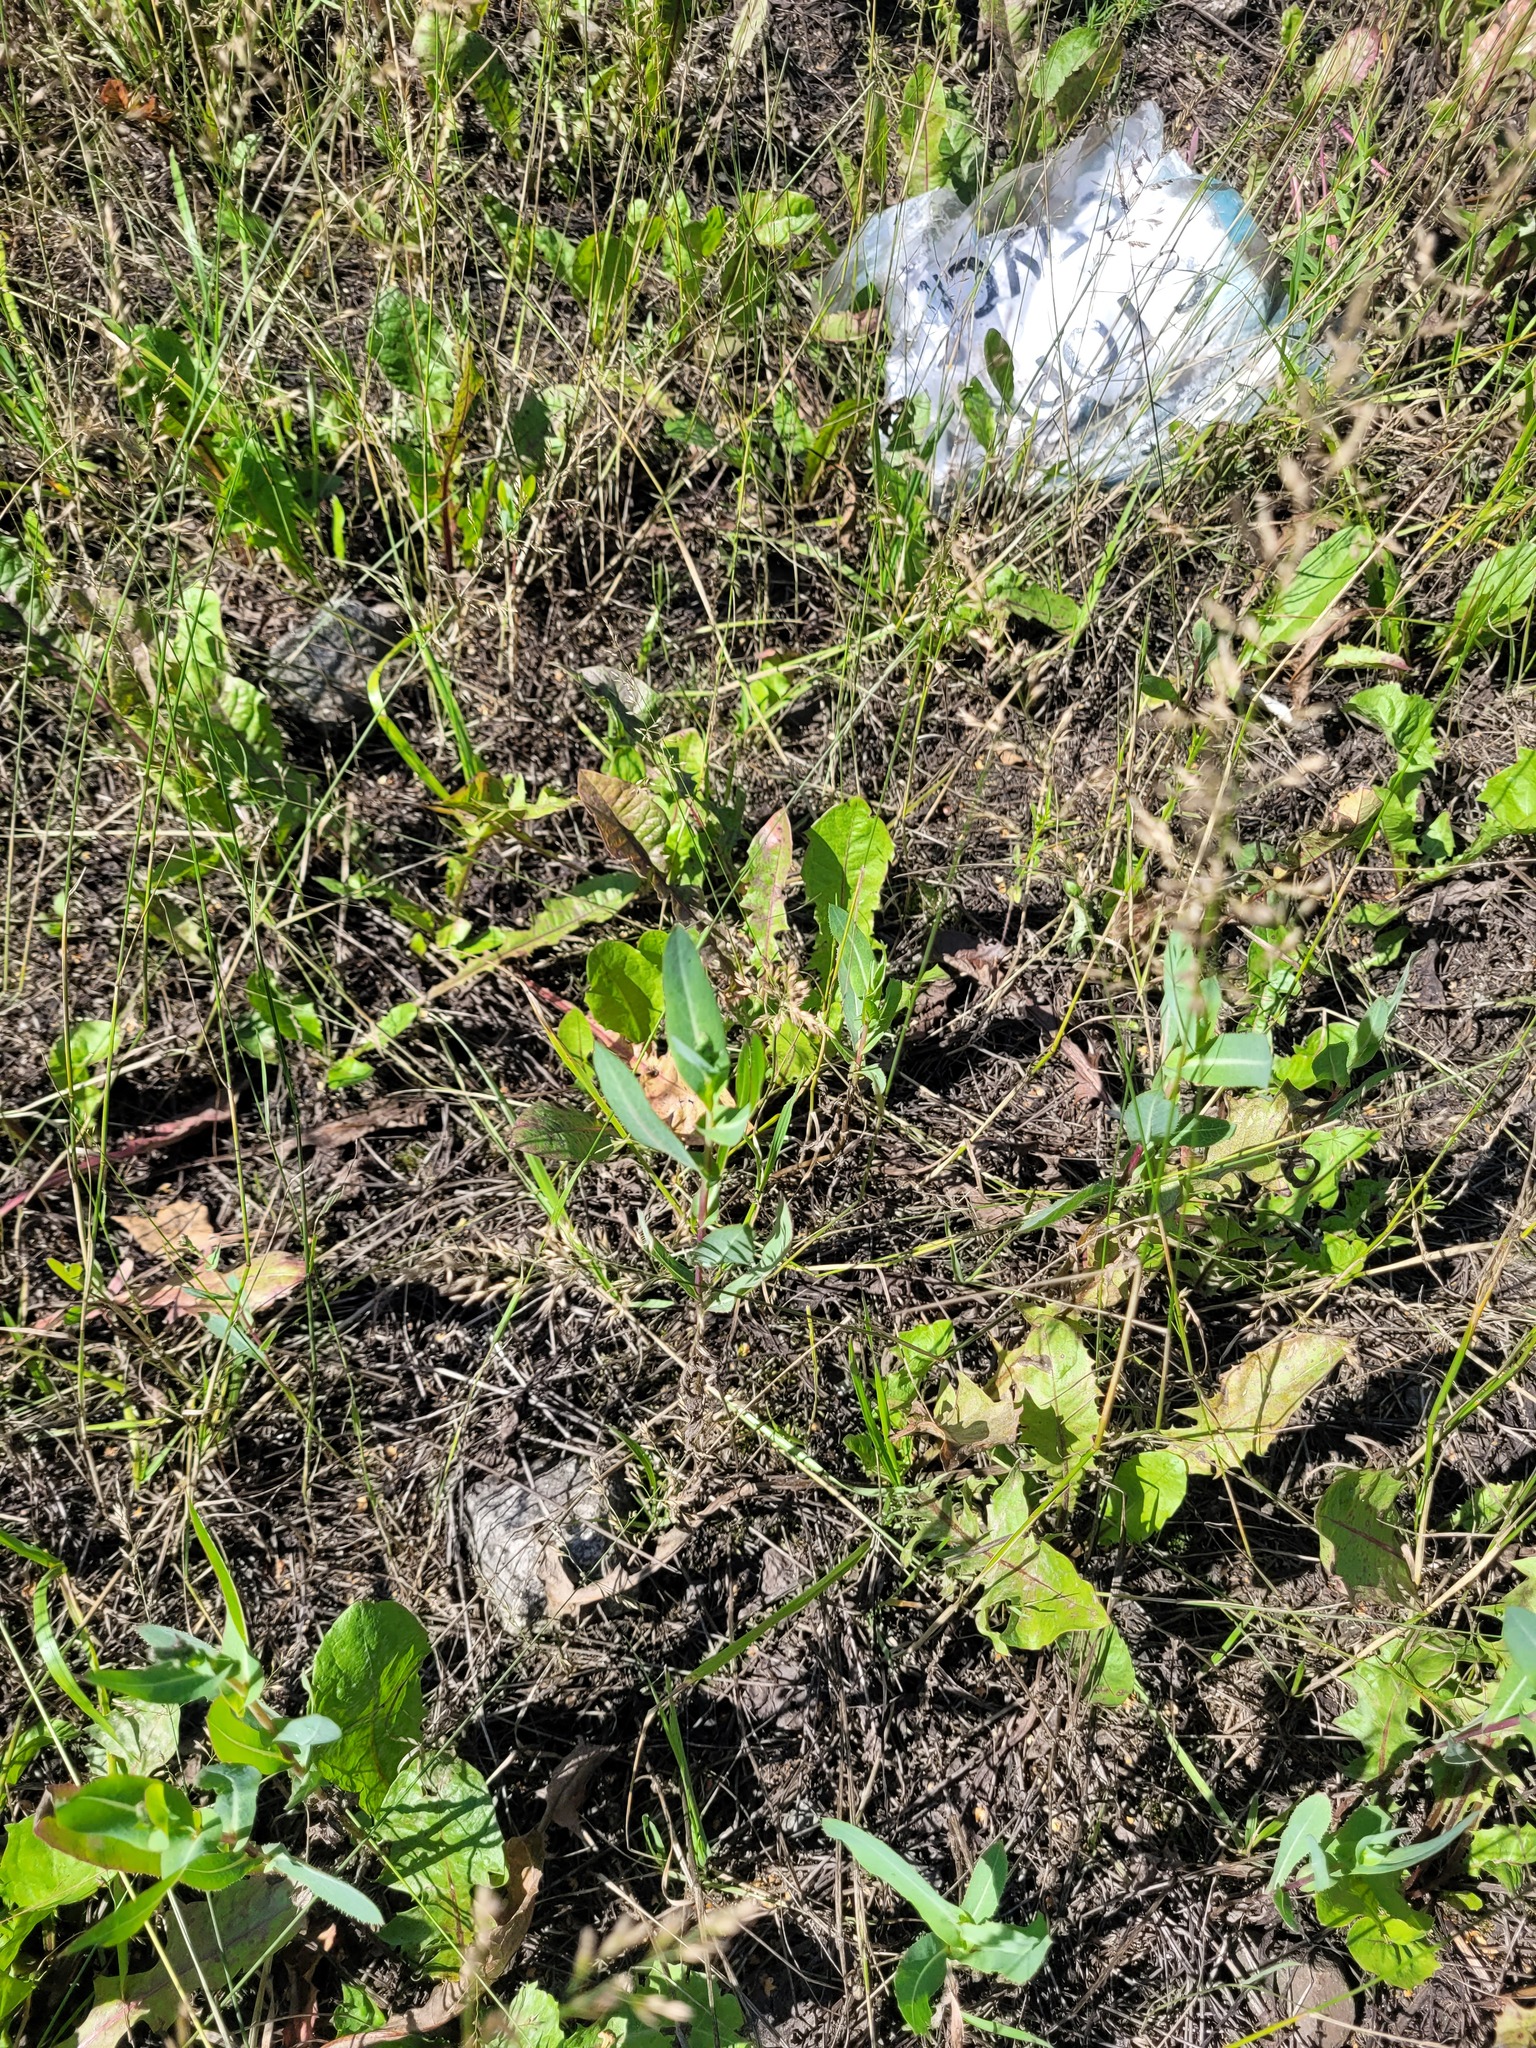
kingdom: Plantae
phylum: Tracheophyta
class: Magnoliopsida
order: Asterales
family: Asteraceae
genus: Lactuca
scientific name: Lactuca serriola
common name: Prickly lettuce
